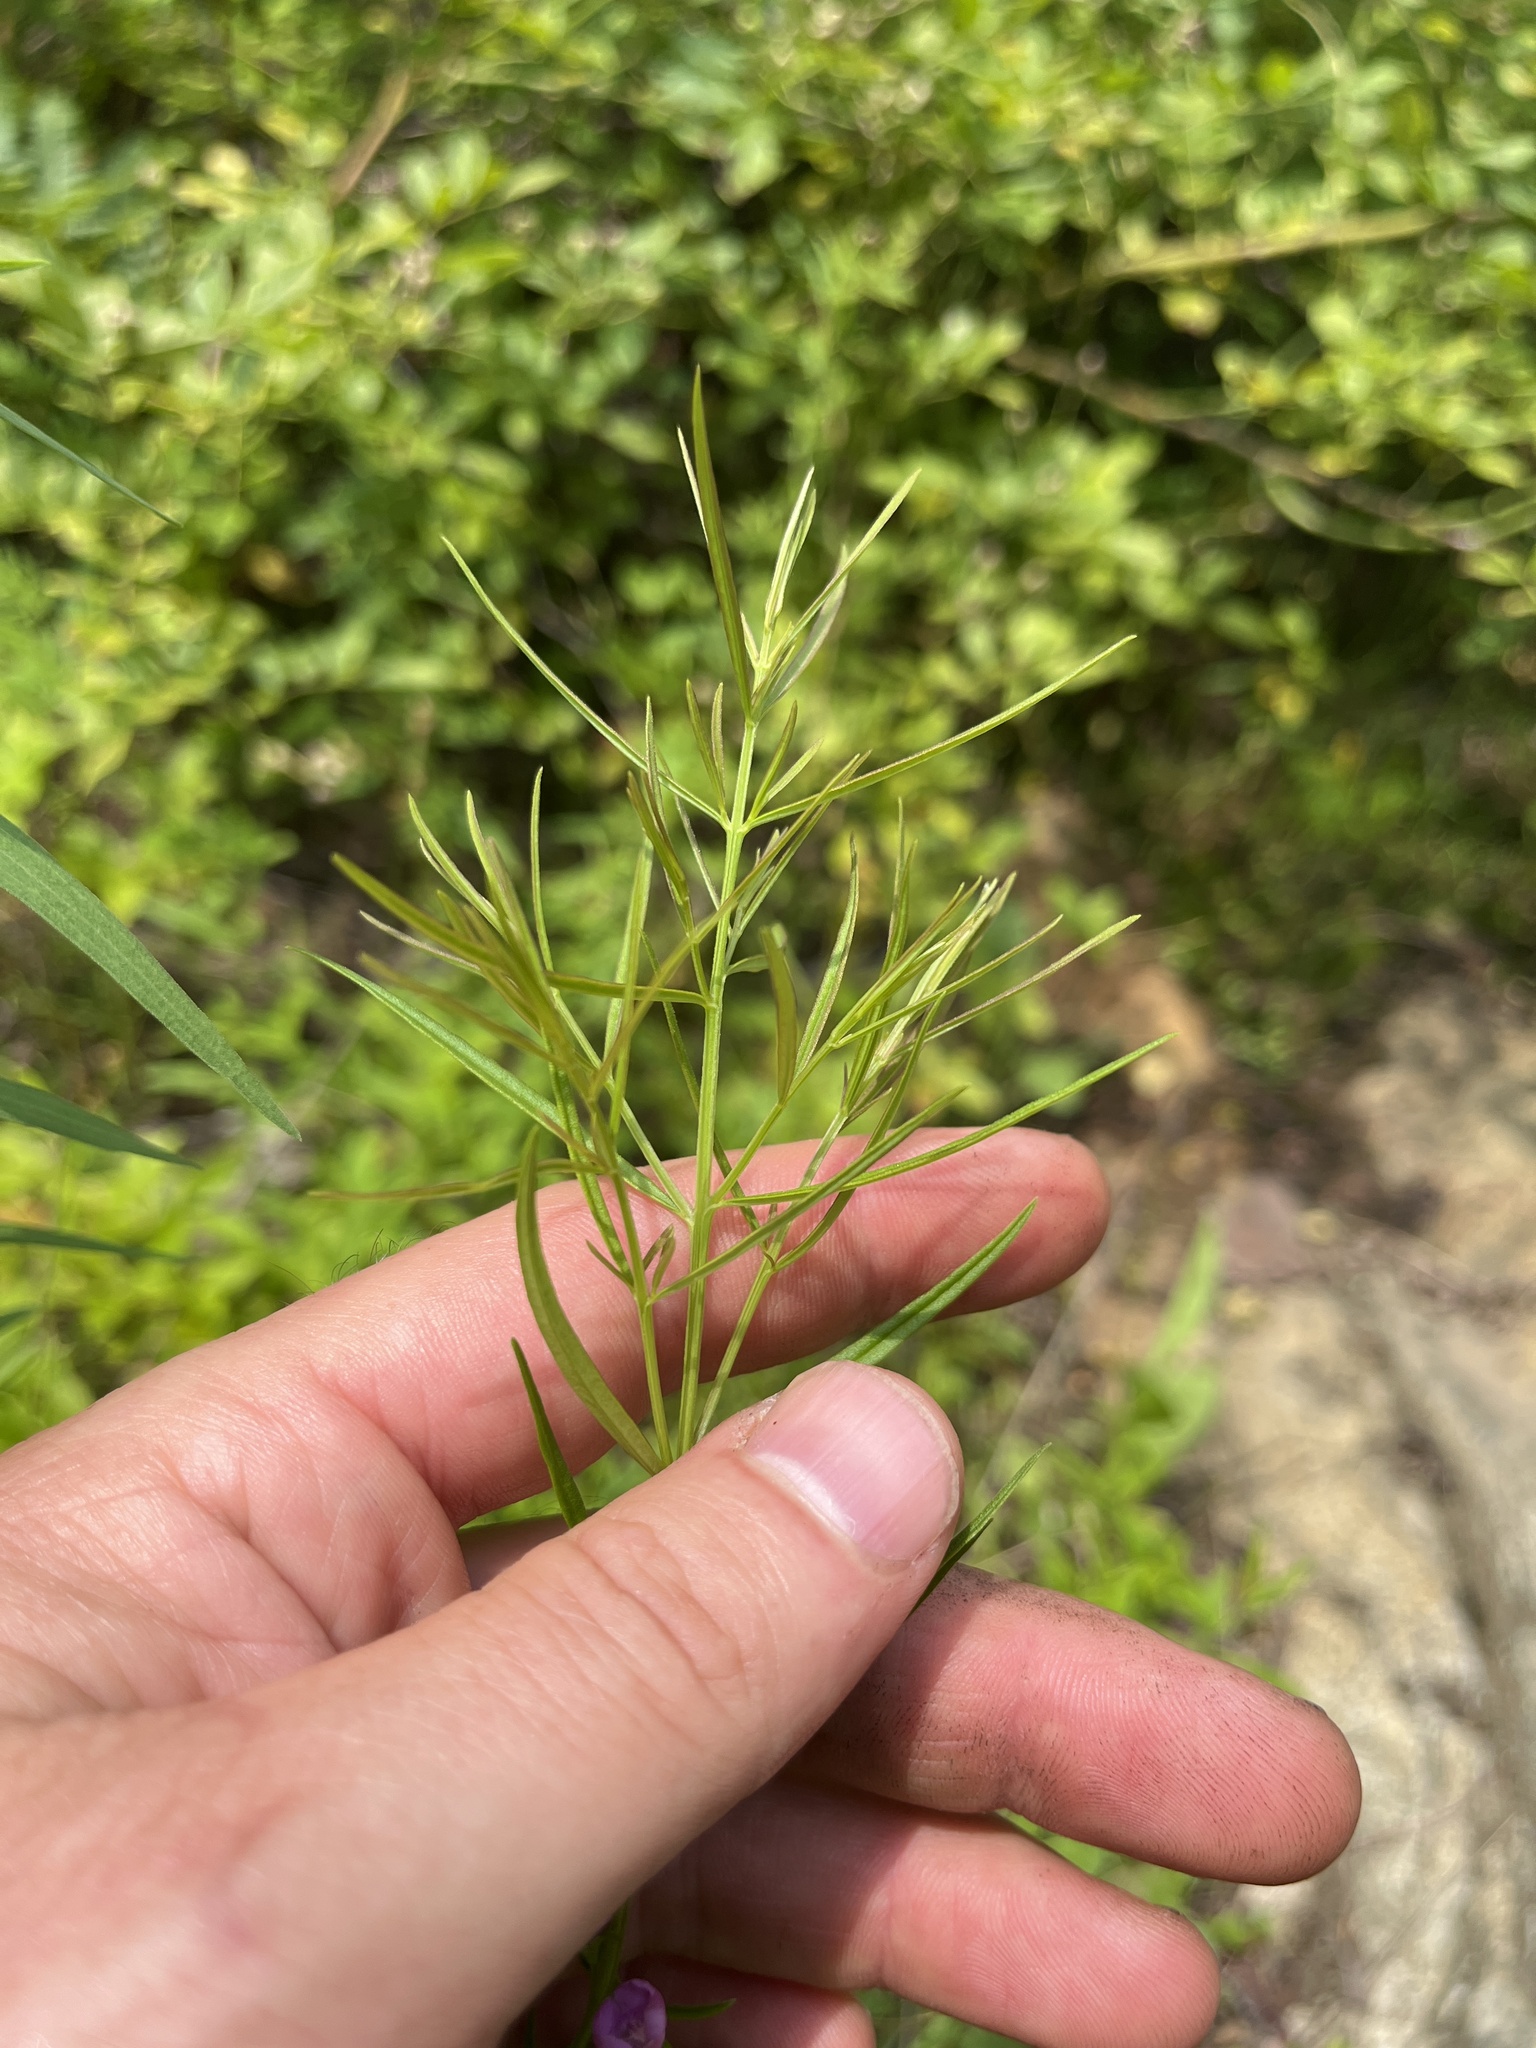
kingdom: Plantae
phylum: Tracheophyta
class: Magnoliopsida
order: Lamiales
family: Orobanchaceae
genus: Agalinis
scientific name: Agalinis purpurea
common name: Purple false foxglove
